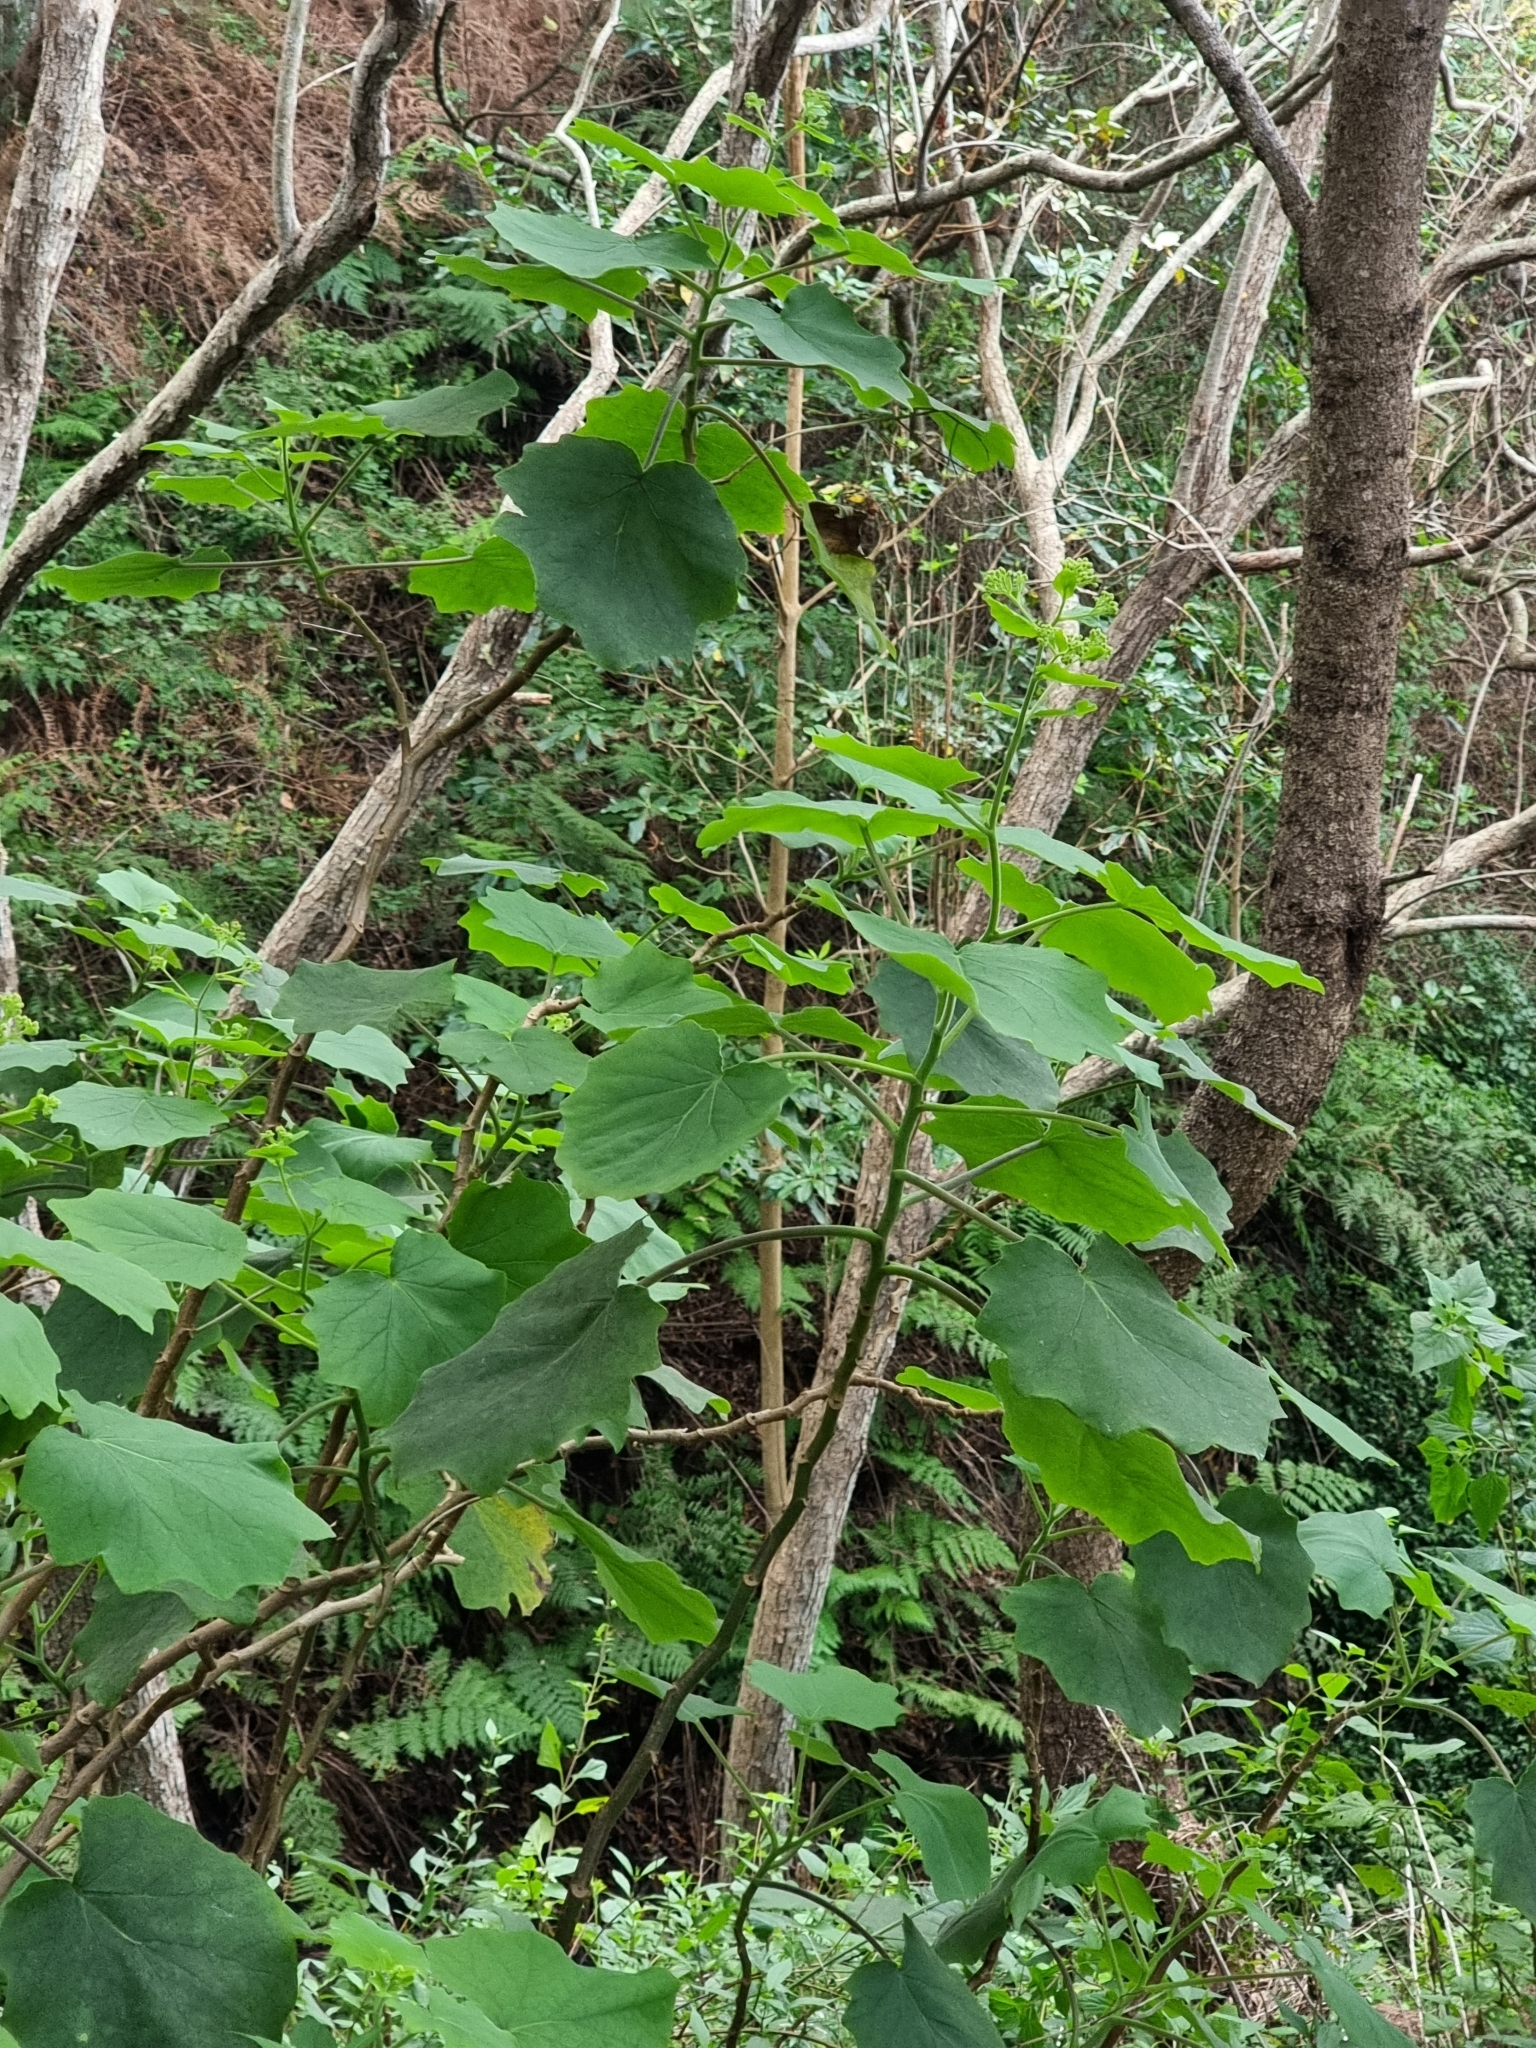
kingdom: Plantae
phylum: Tracheophyta
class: Magnoliopsida
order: Asterales
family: Asteraceae
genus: Roldana
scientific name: Roldana petasitis
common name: California-geranium
